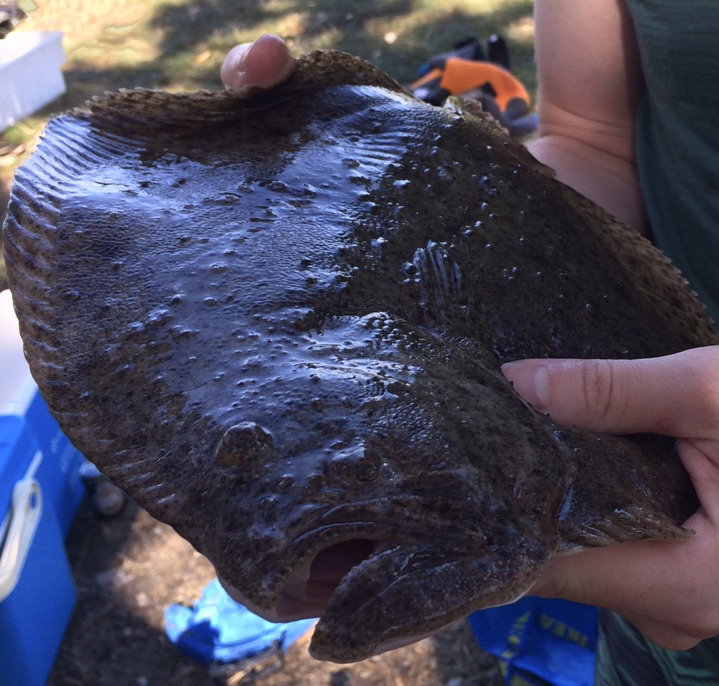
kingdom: Animalia
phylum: Chordata
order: Pleuronectiformes
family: Scophthalmidae
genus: Scophthalmus
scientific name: Scophthalmus maximus
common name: Turbot
